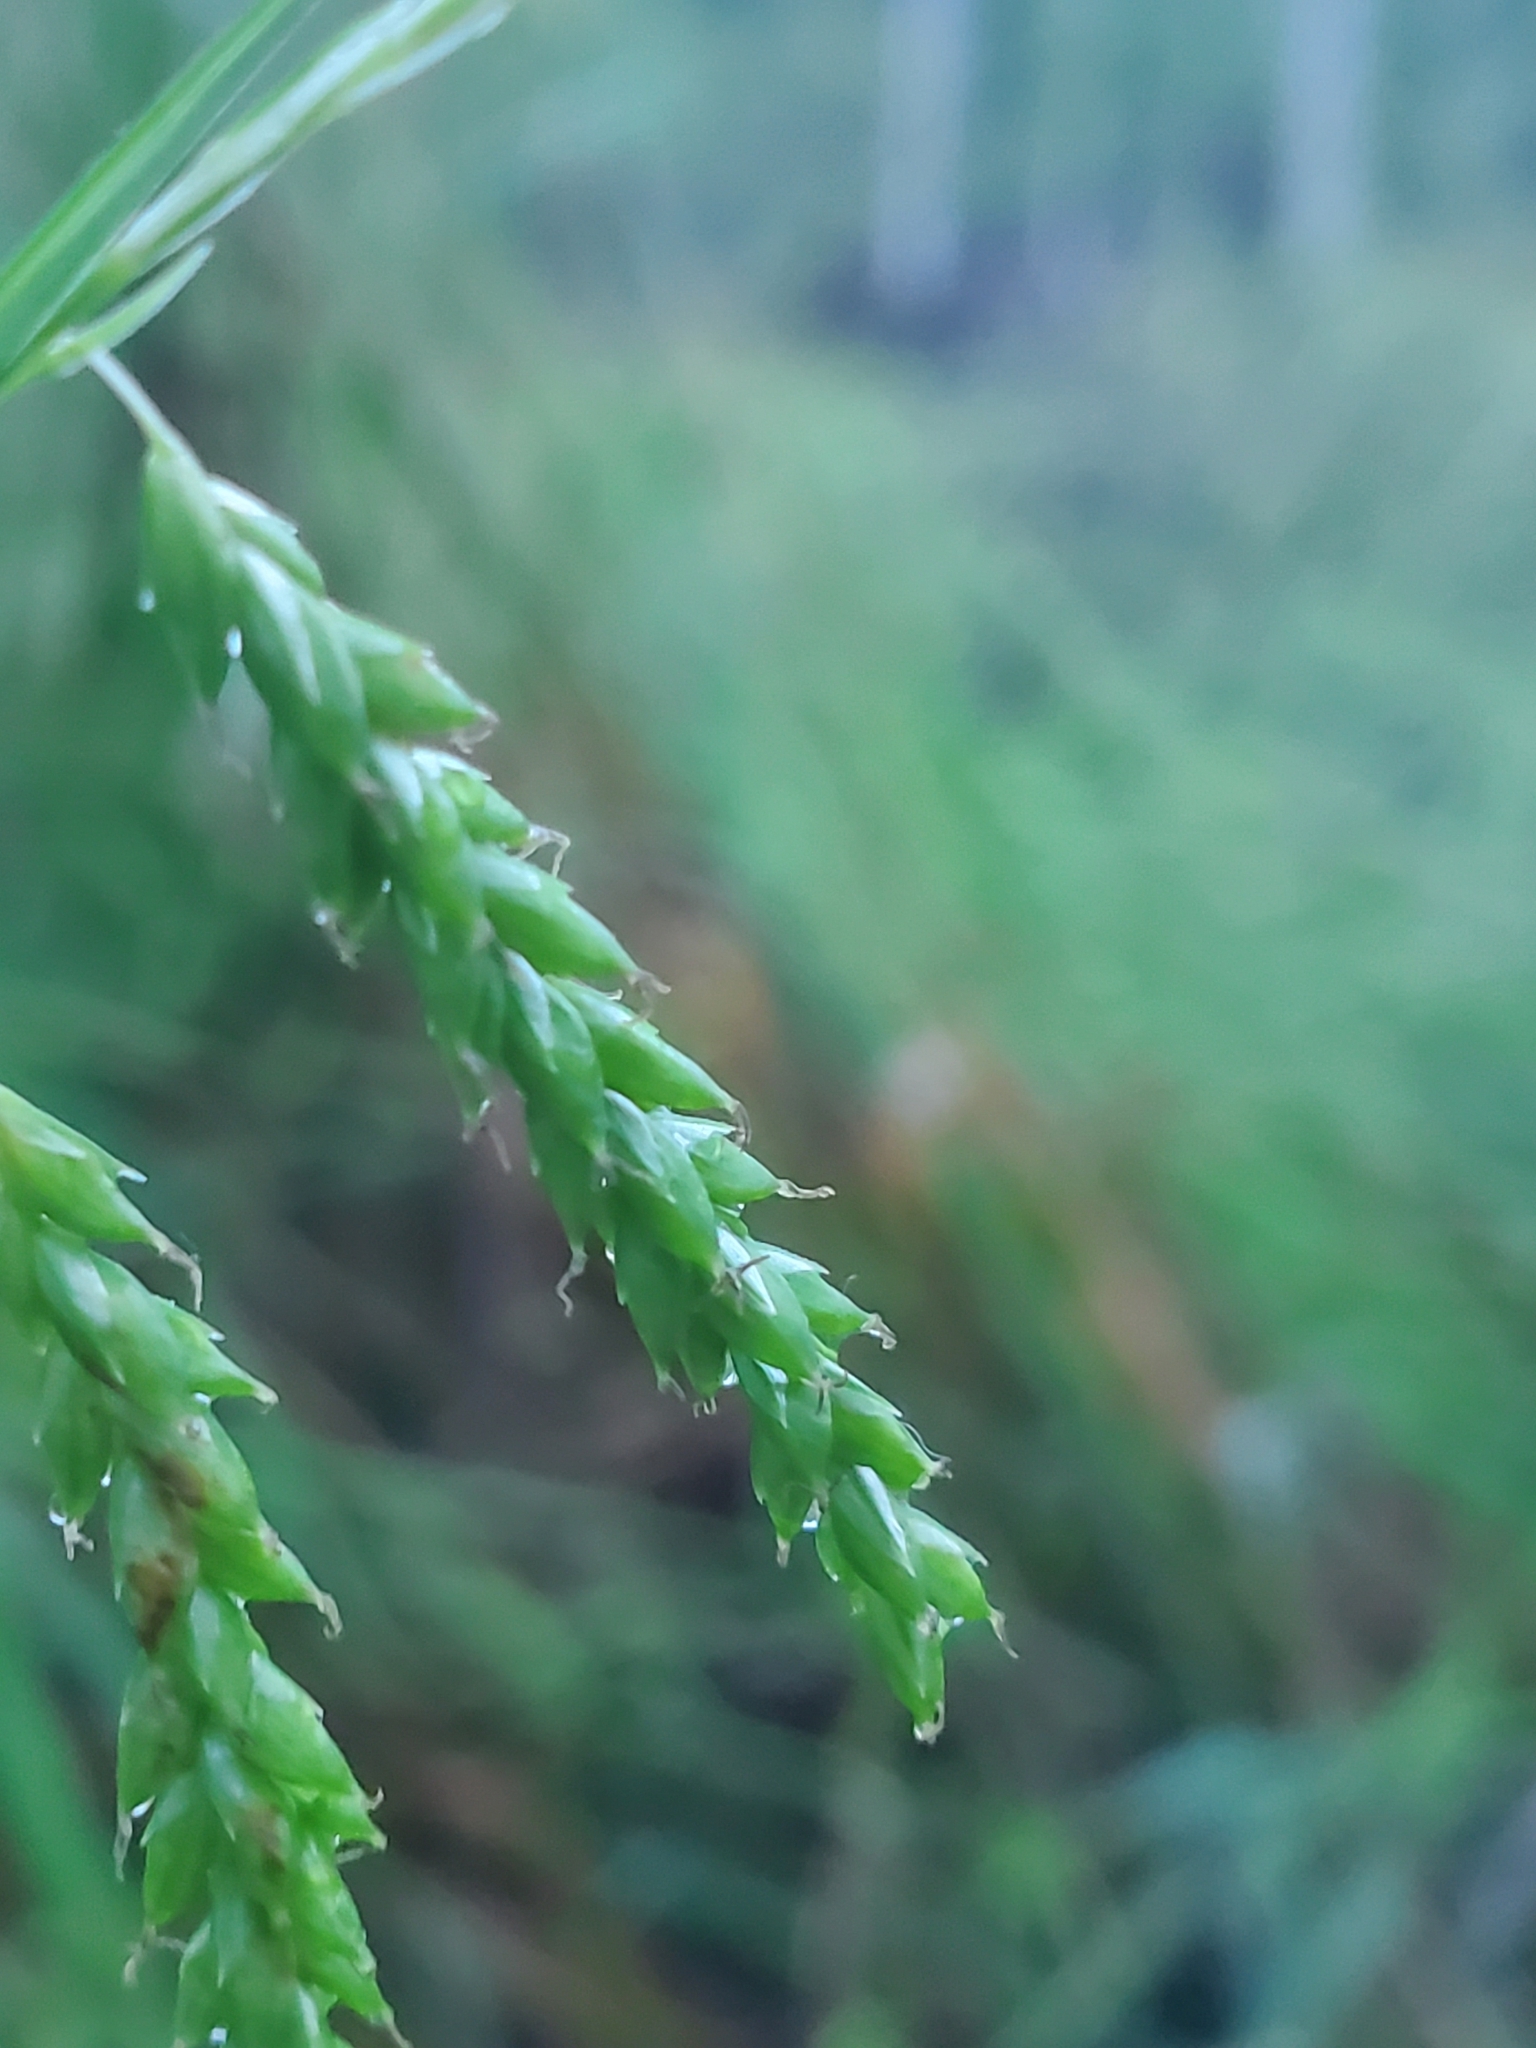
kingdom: Plantae
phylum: Tracheophyta
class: Liliopsida
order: Poales
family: Cyperaceae
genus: Carex
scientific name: Carex oxylepis
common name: Sharpscale sedge
